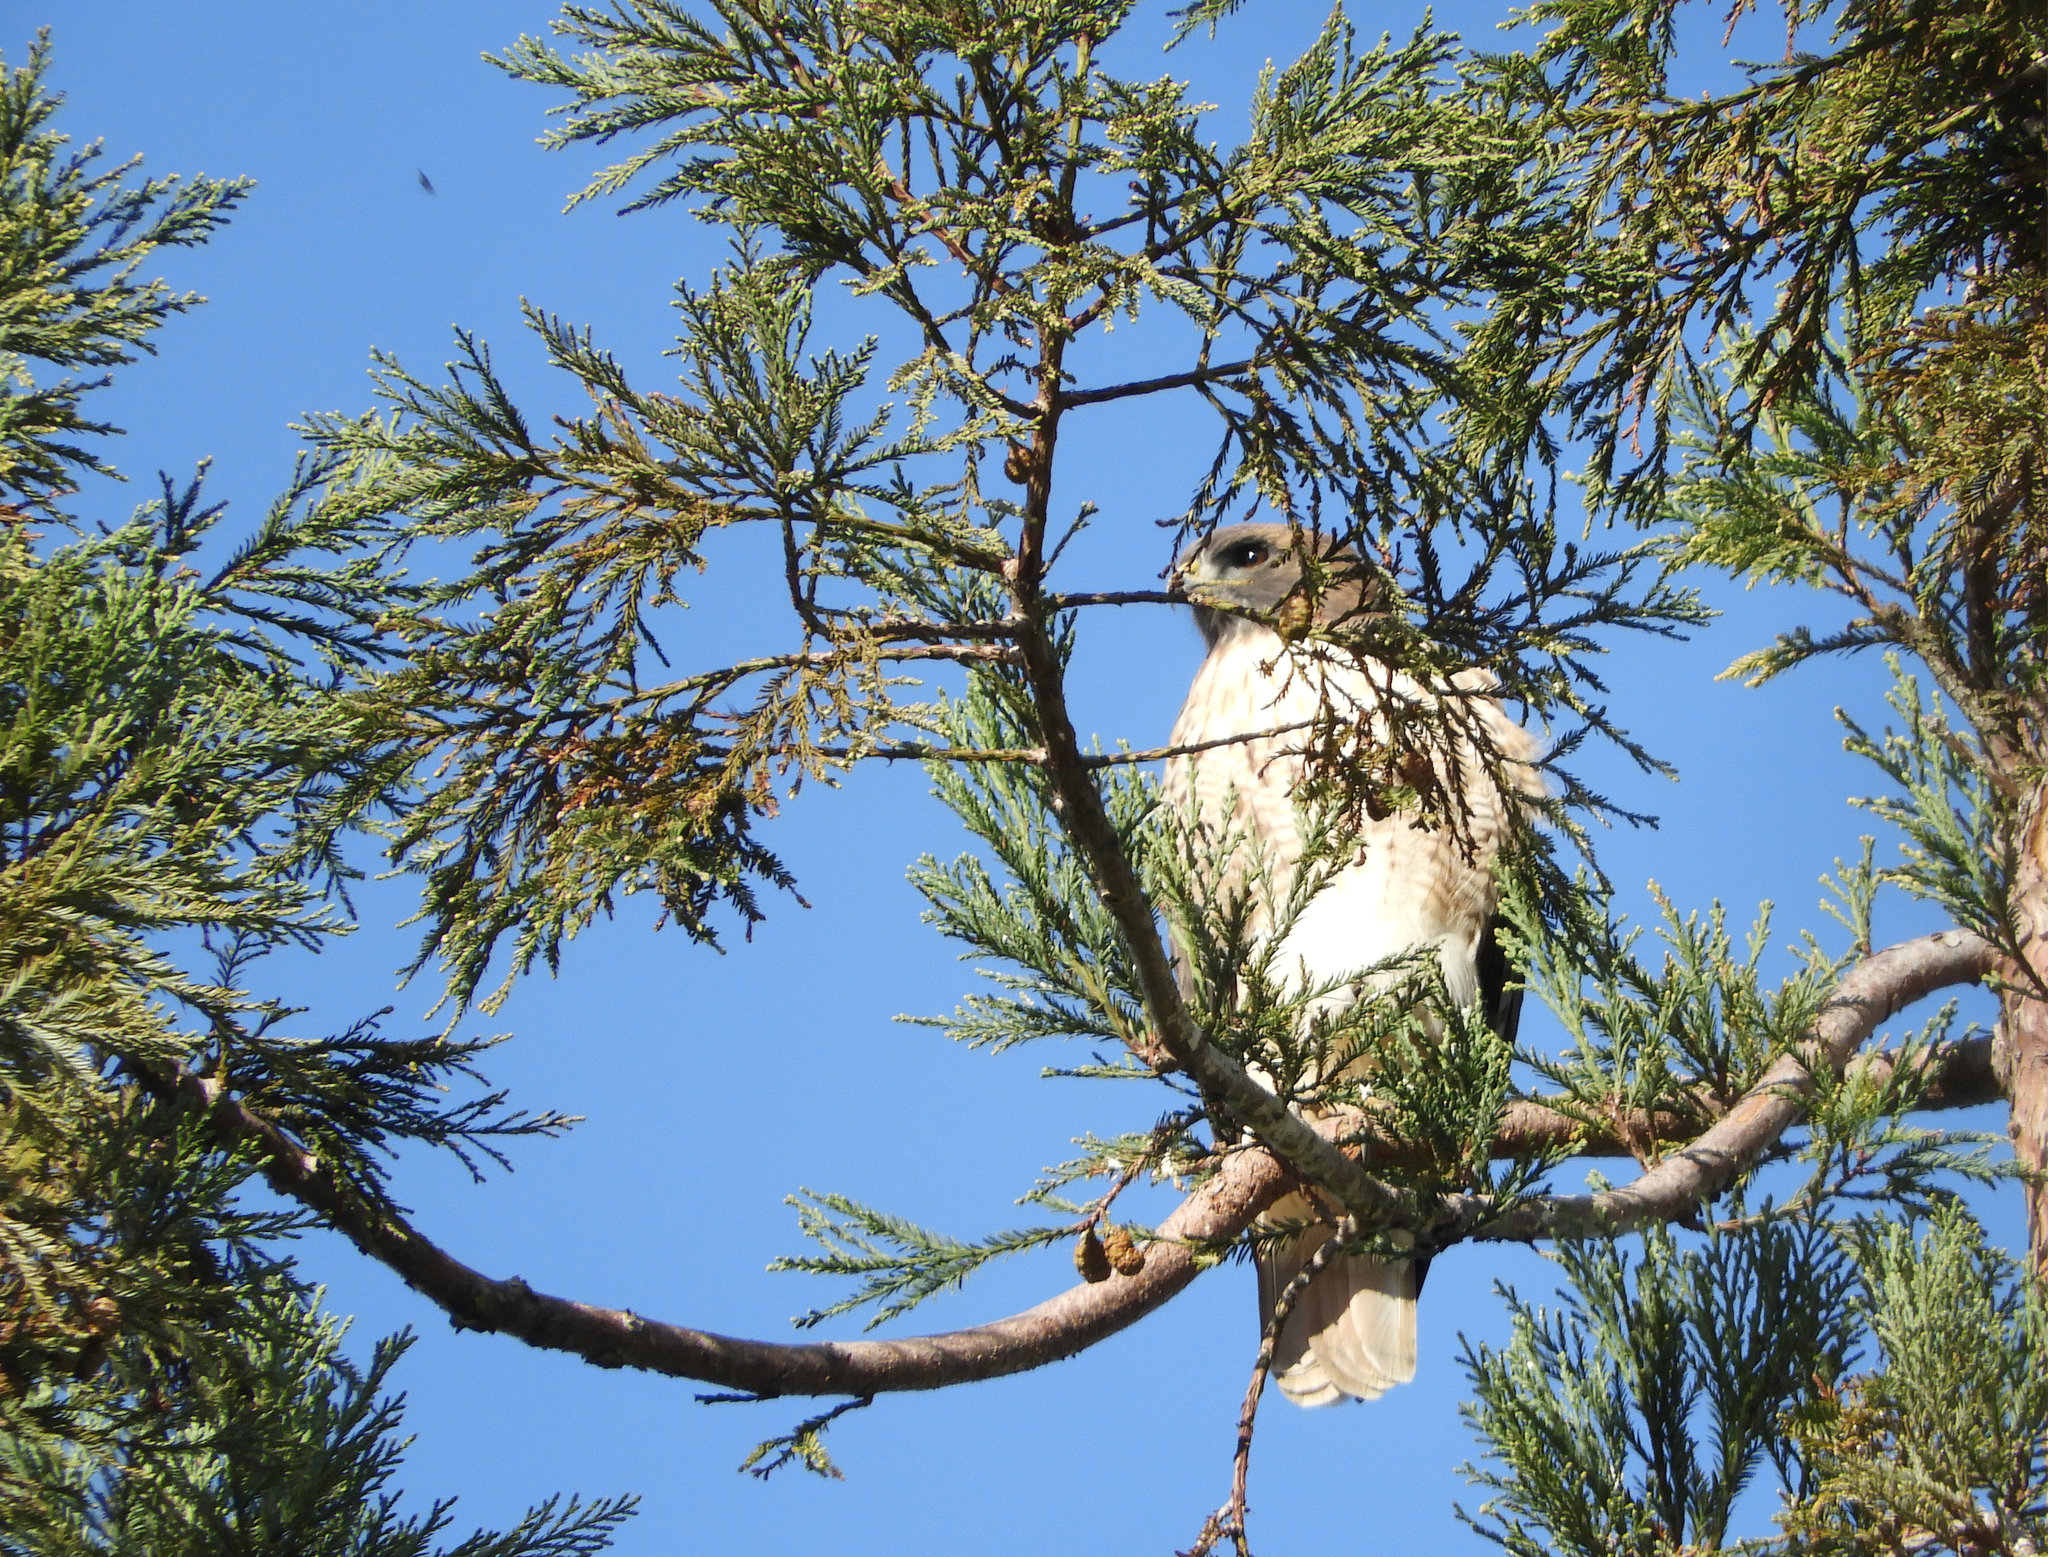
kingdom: Animalia
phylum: Chordata
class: Aves
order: Accipitriformes
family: Accipitridae
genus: Buteo
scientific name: Buteo jamaicensis
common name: Red-tailed hawk
